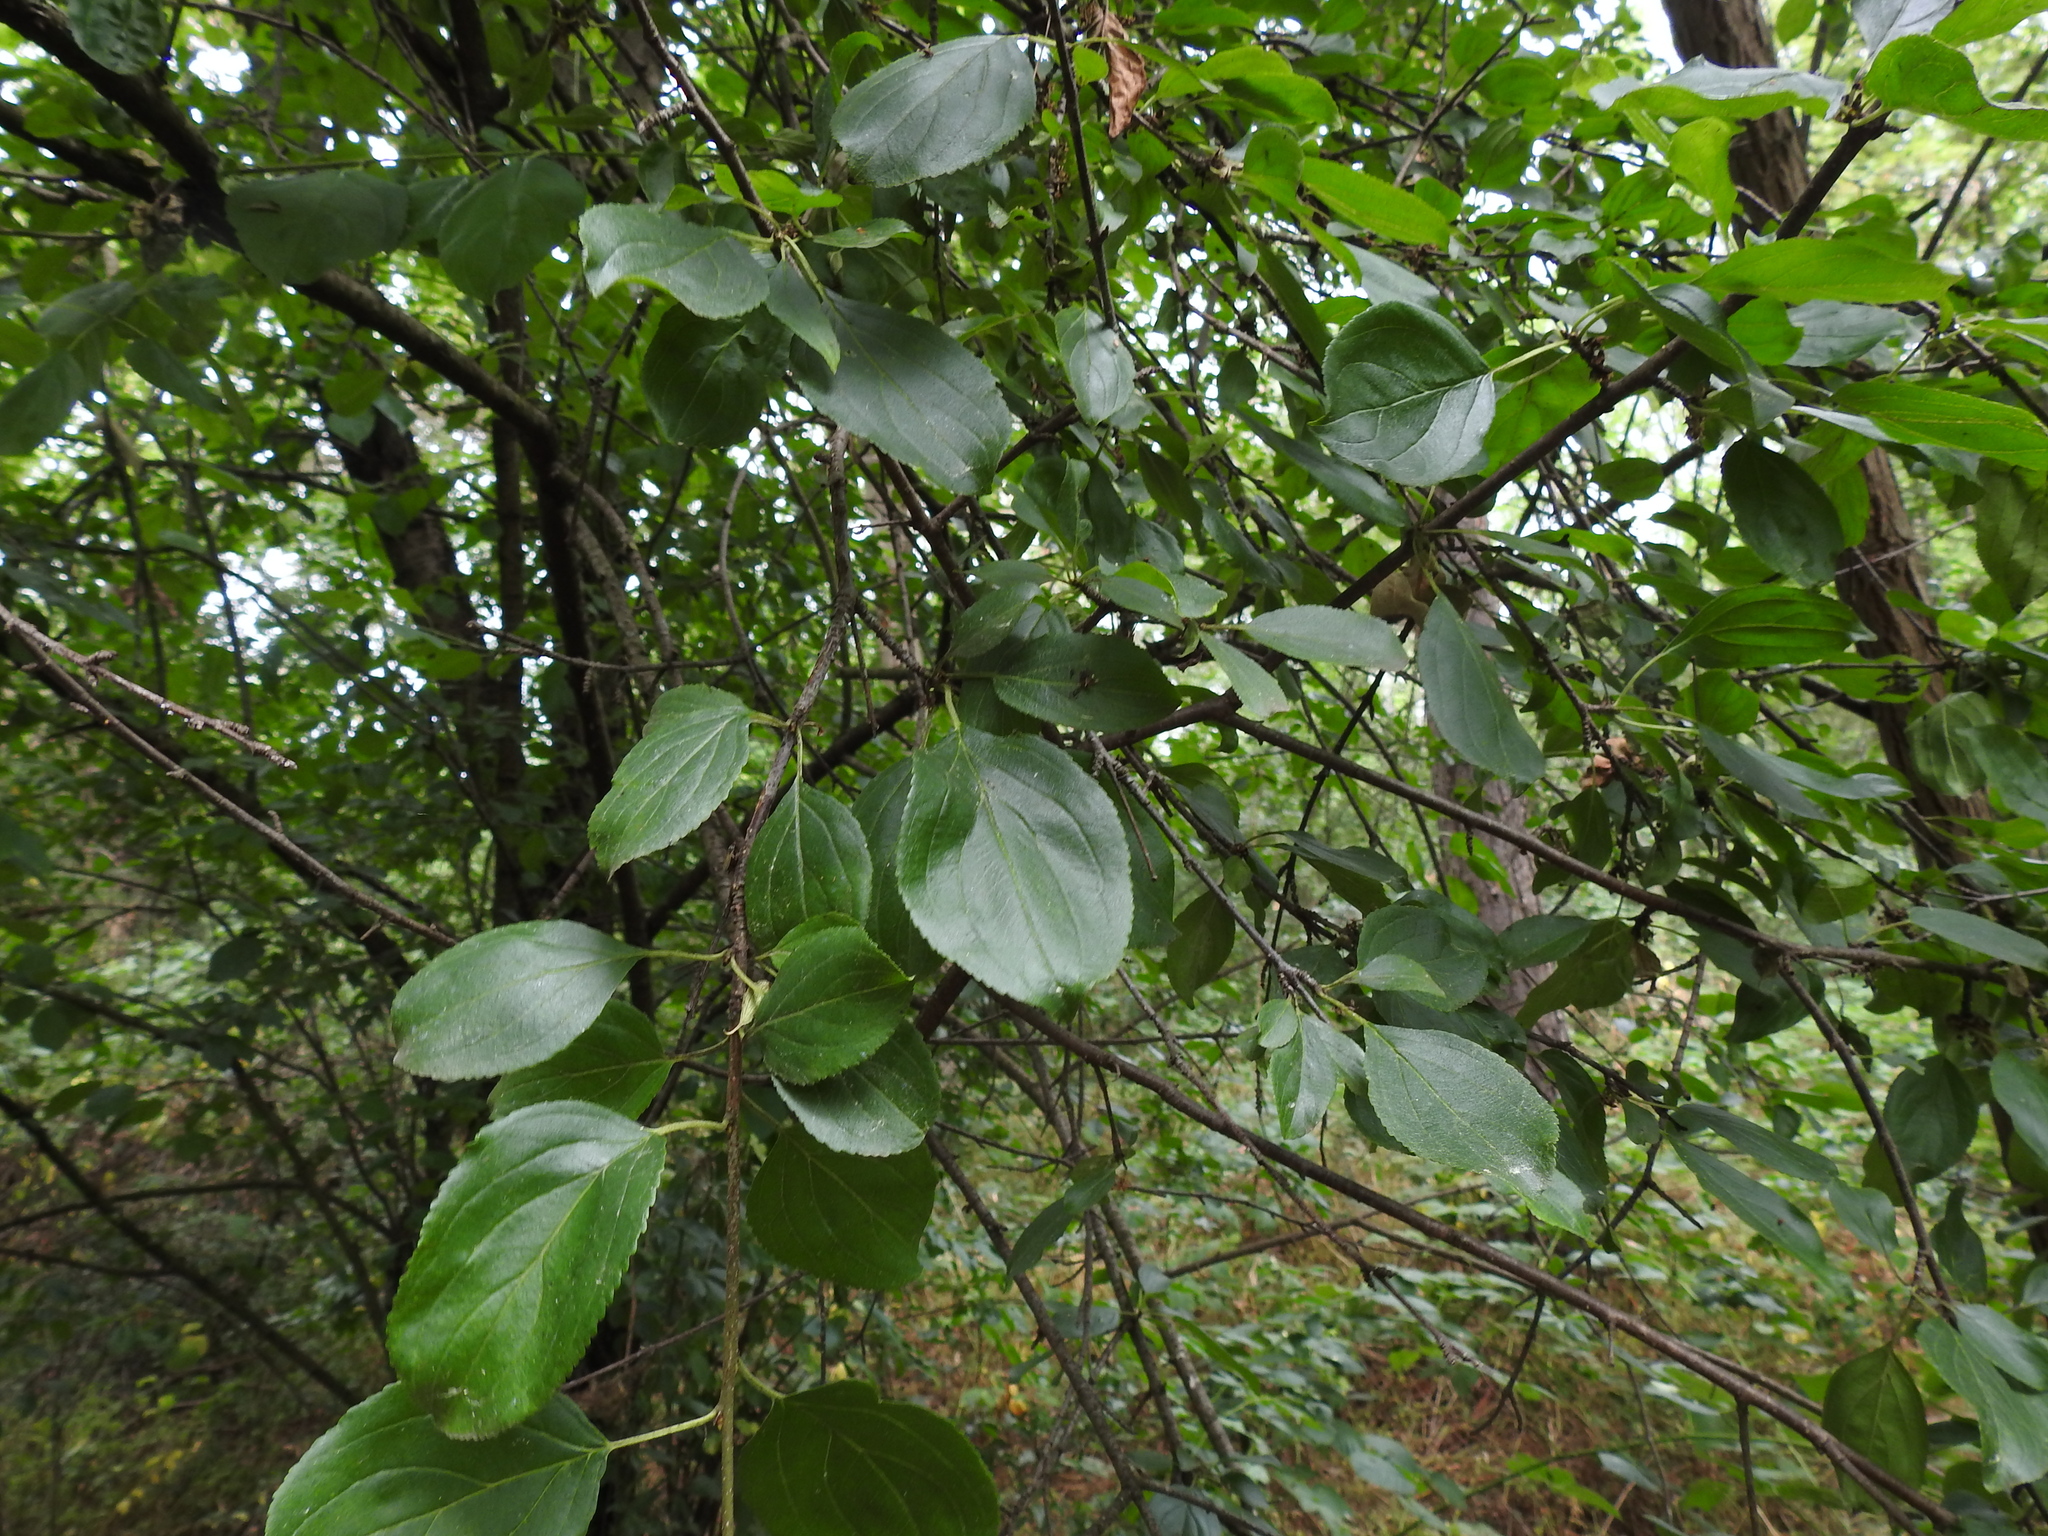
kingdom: Plantae
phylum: Tracheophyta
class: Magnoliopsida
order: Rosales
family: Rhamnaceae
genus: Rhamnus
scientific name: Rhamnus cathartica
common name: Common buckthorn
